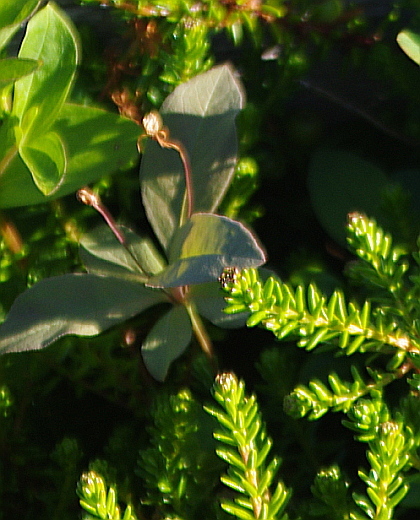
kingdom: Plantae
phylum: Tracheophyta
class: Magnoliopsida
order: Ericales
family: Primulaceae
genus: Lysimachia
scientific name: Lysimachia europaea
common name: Arctic starflower
